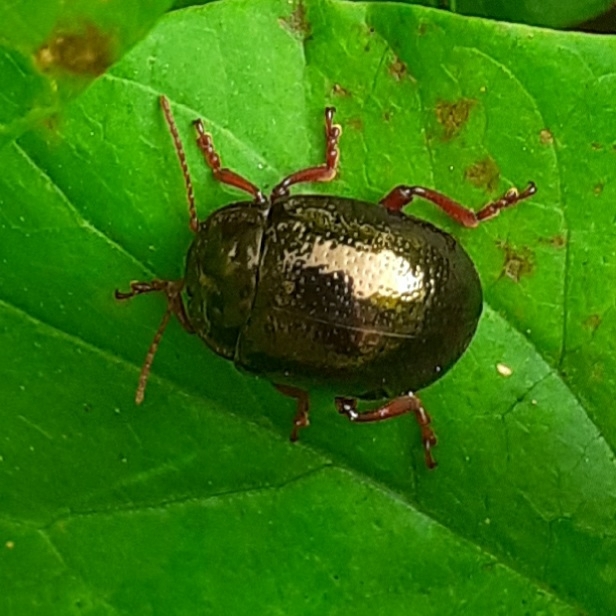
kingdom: Animalia
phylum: Arthropoda
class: Insecta
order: Coleoptera
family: Chrysomelidae
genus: Chrysolina
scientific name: Chrysolina bankii
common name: Leaf beetle
